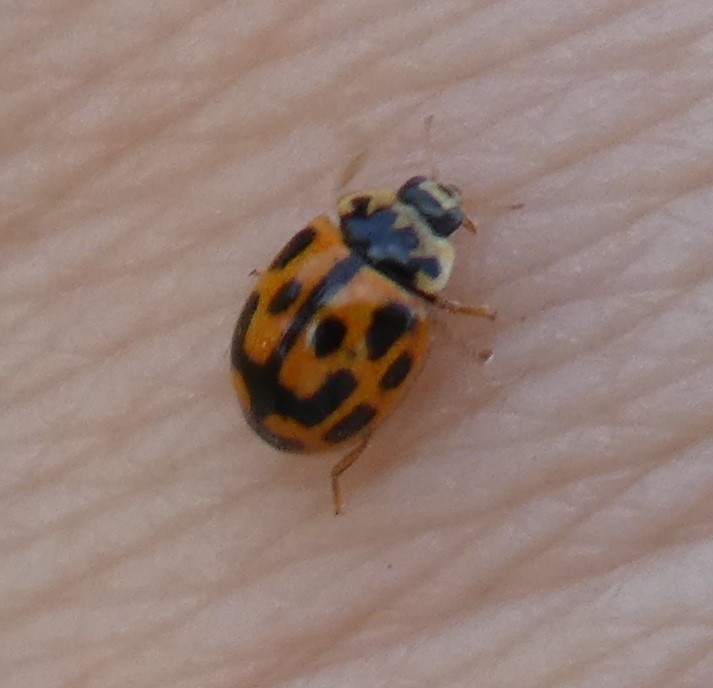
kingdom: Animalia
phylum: Arthropoda
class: Insecta
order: Coleoptera
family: Coccinellidae
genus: Propylaea
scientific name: Propylaea quatuordecimpunctata
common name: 14-spotted ladybird beetle
